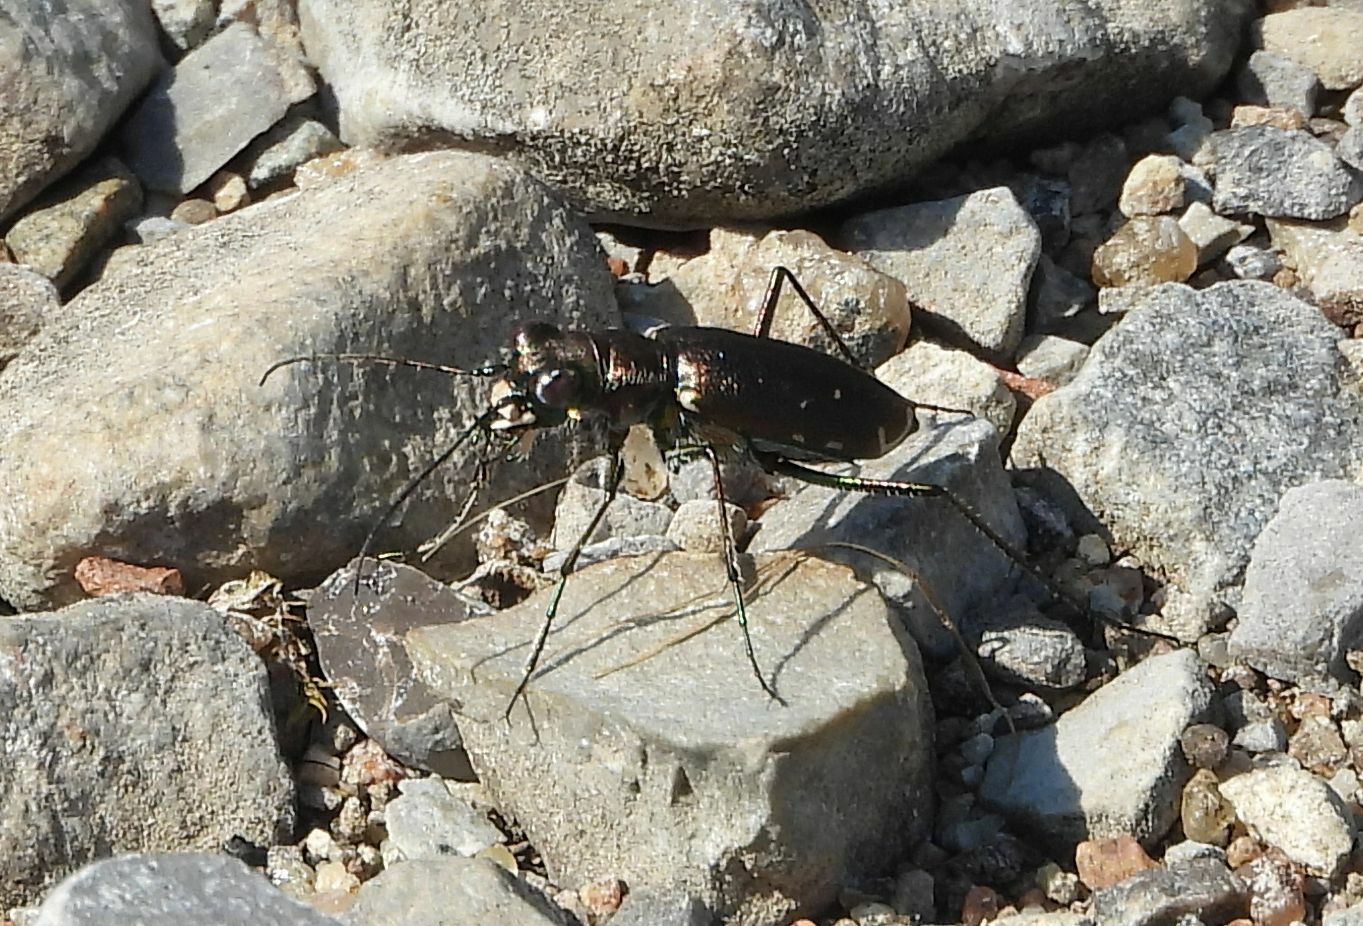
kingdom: Animalia
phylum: Arthropoda
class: Insecta
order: Coleoptera
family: Carabidae
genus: Cicindela
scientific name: Cicindela punctulata
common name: Punctured tiger beetle
